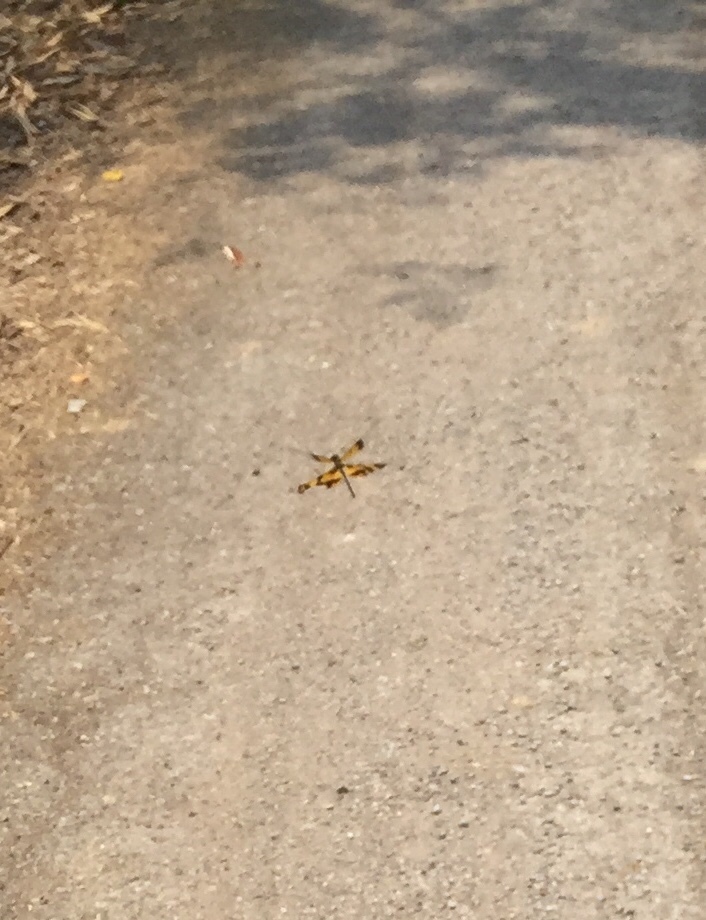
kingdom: Animalia
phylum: Arthropoda
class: Insecta
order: Odonata
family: Libellulidae
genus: Rhyothemis
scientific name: Rhyothemis variegata
